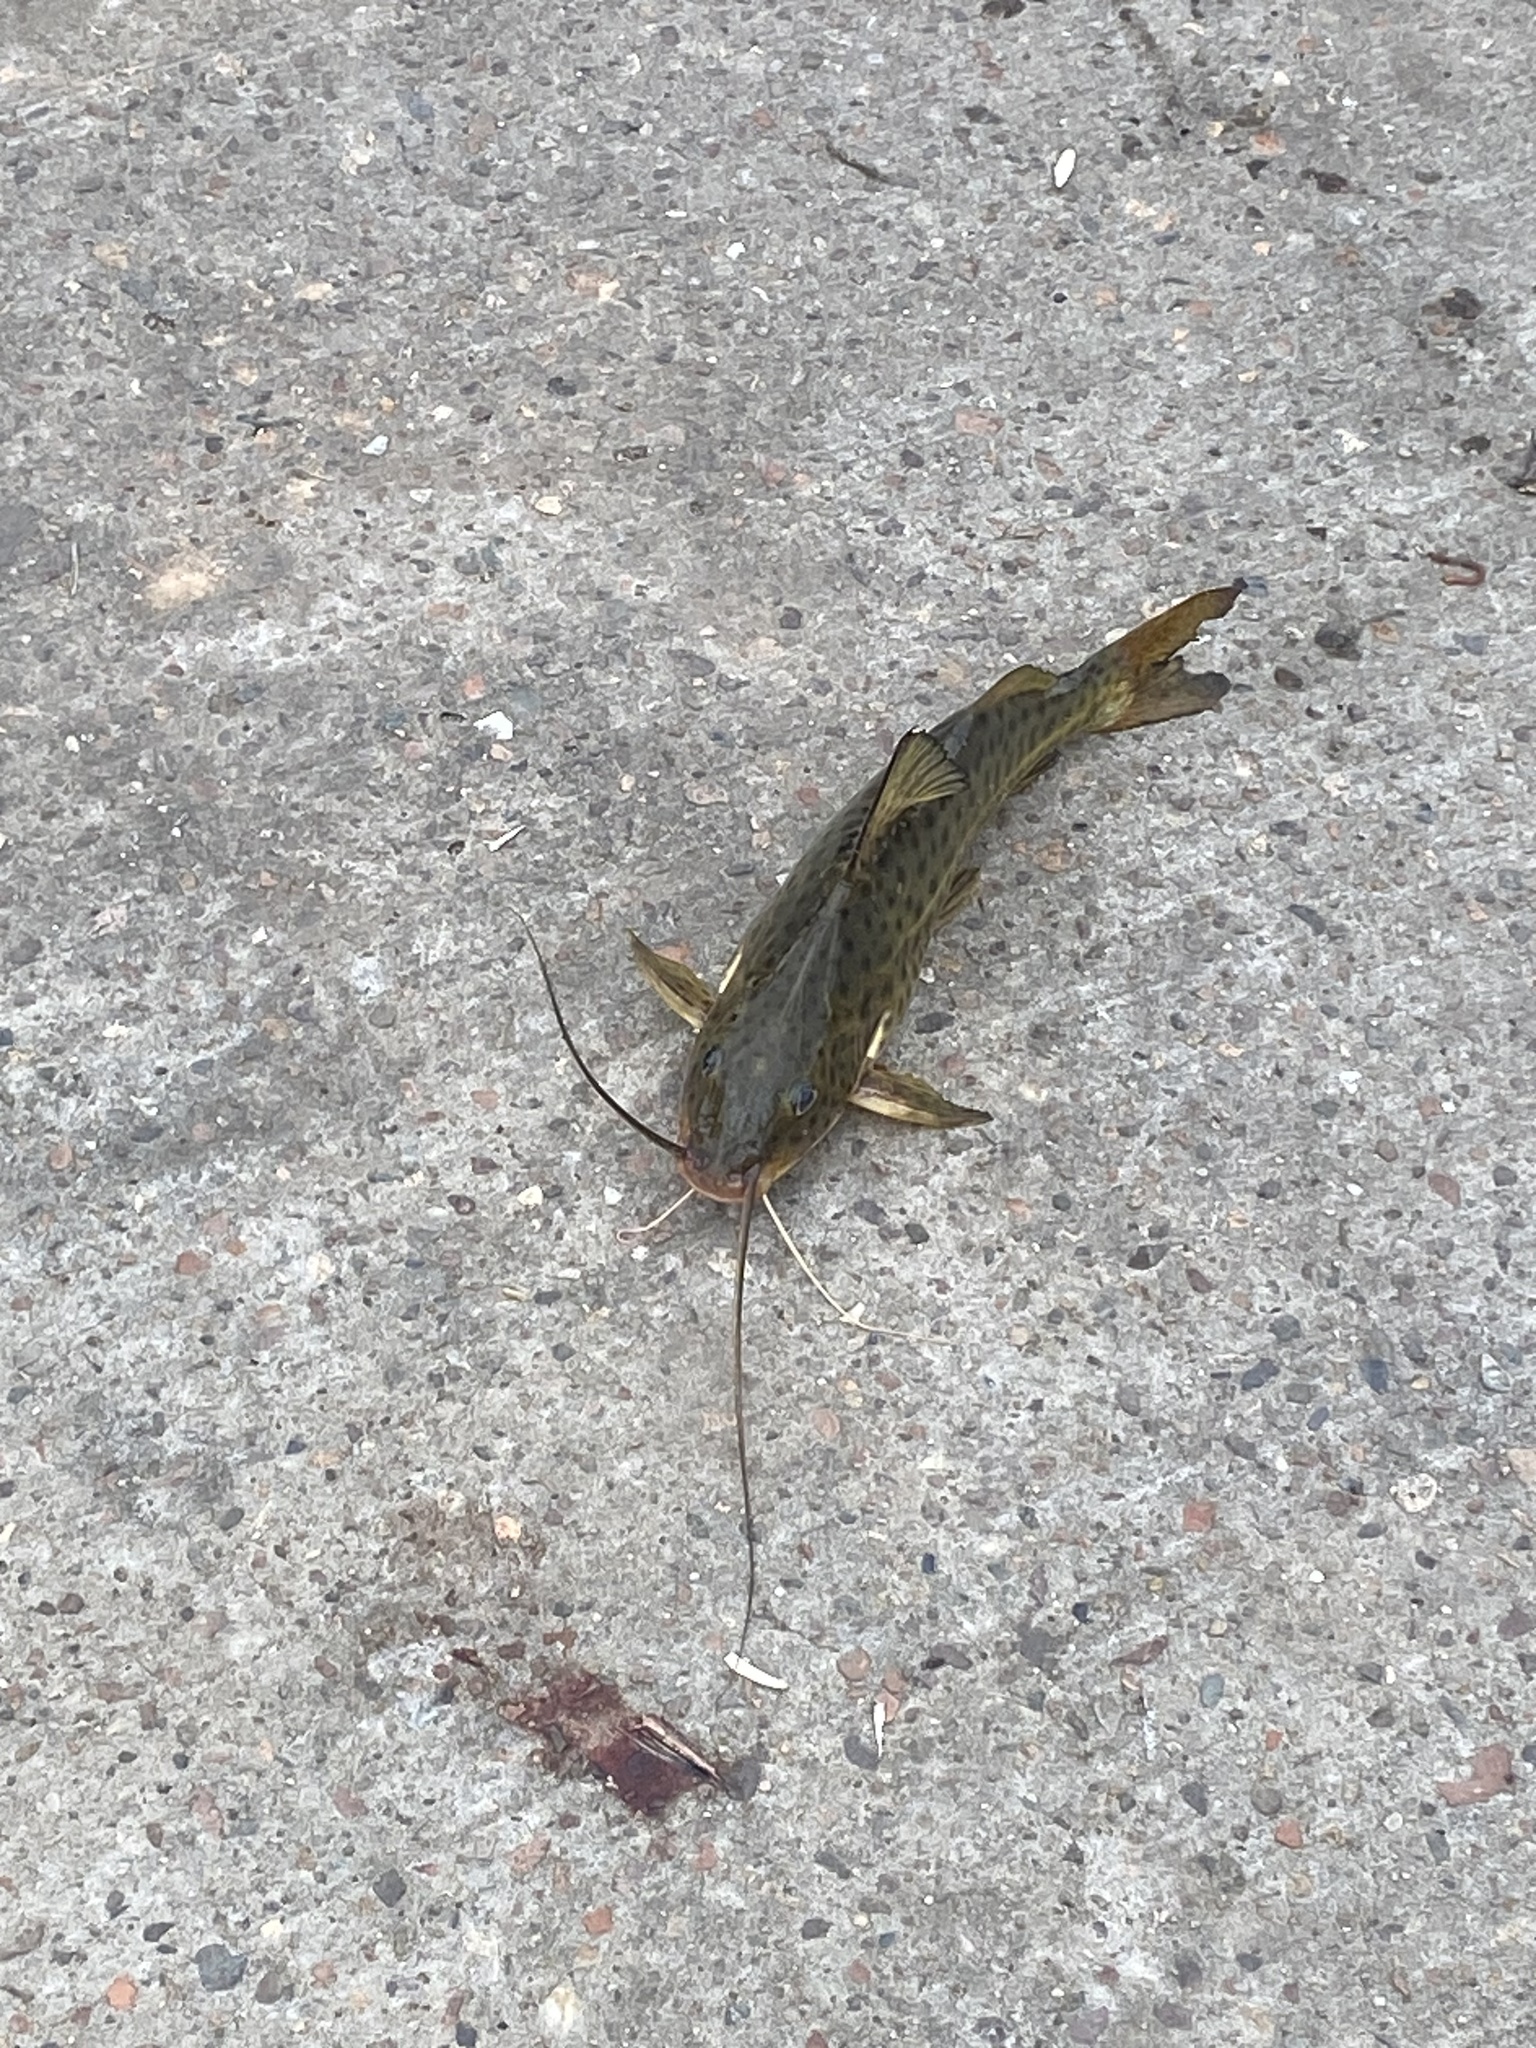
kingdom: Animalia
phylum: Chordata
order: Siluriformes
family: Pimelodidae
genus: Pimelodus
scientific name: Pimelodus maculatus
